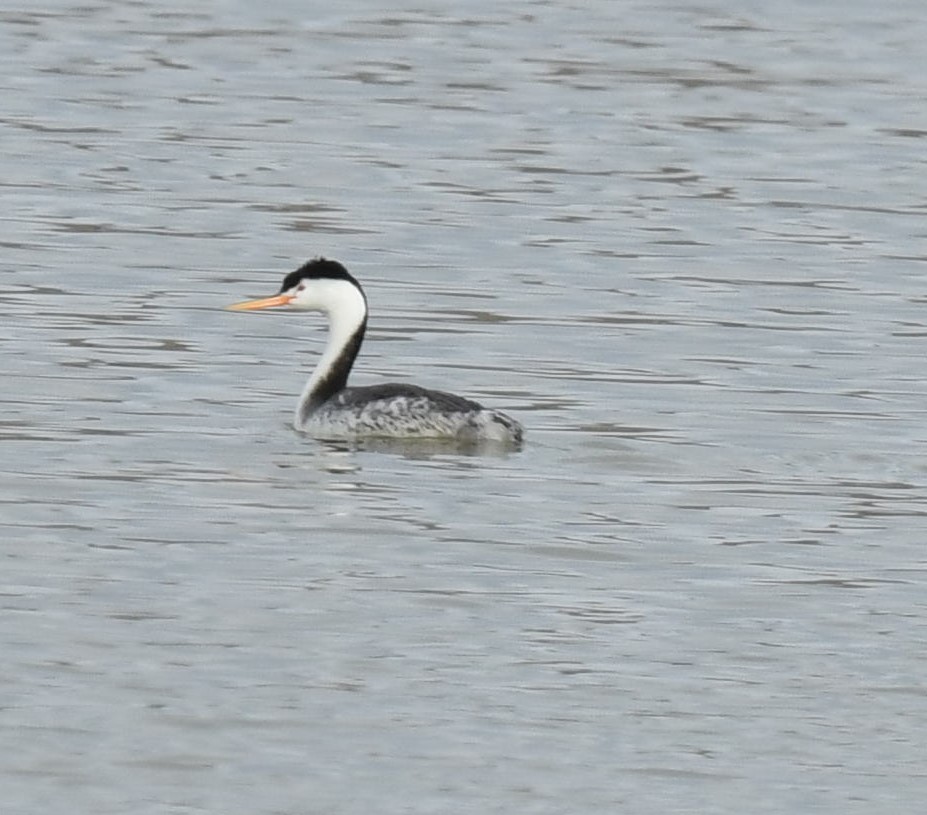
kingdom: Animalia
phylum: Chordata
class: Aves
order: Podicipediformes
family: Podicipedidae
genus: Aechmophorus
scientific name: Aechmophorus clarkii
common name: Clark's grebe
